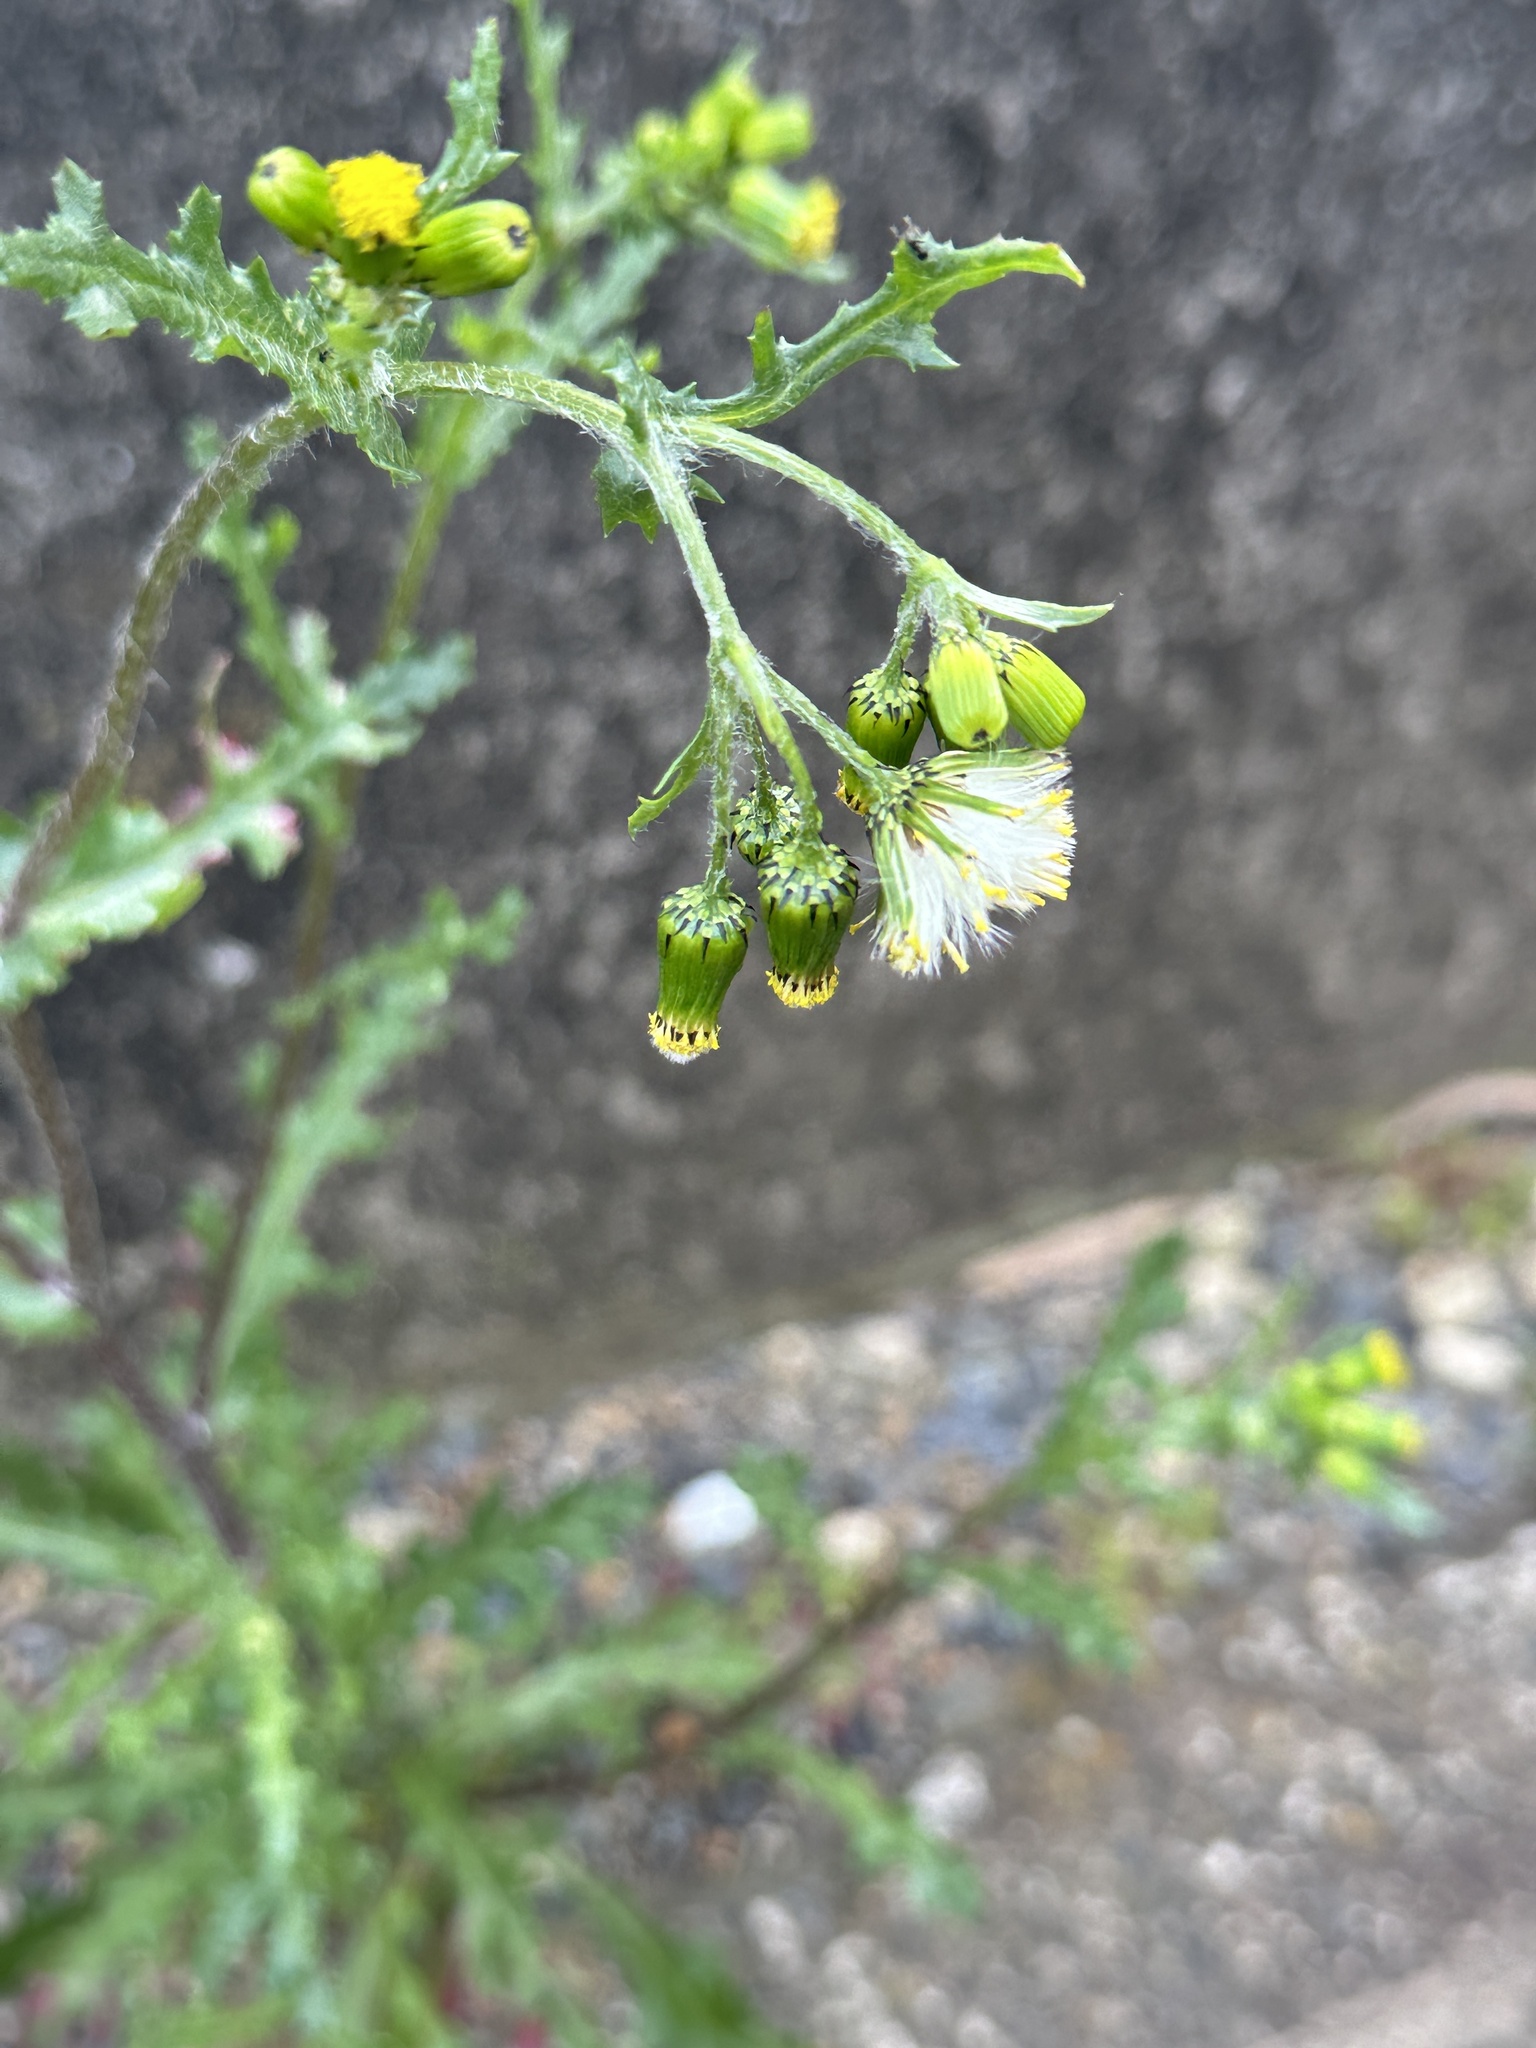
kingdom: Plantae
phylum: Tracheophyta
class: Magnoliopsida
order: Asterales
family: Asteraceae
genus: Senecio
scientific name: Senecio vulgaris
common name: Old-man-in-the-spring
